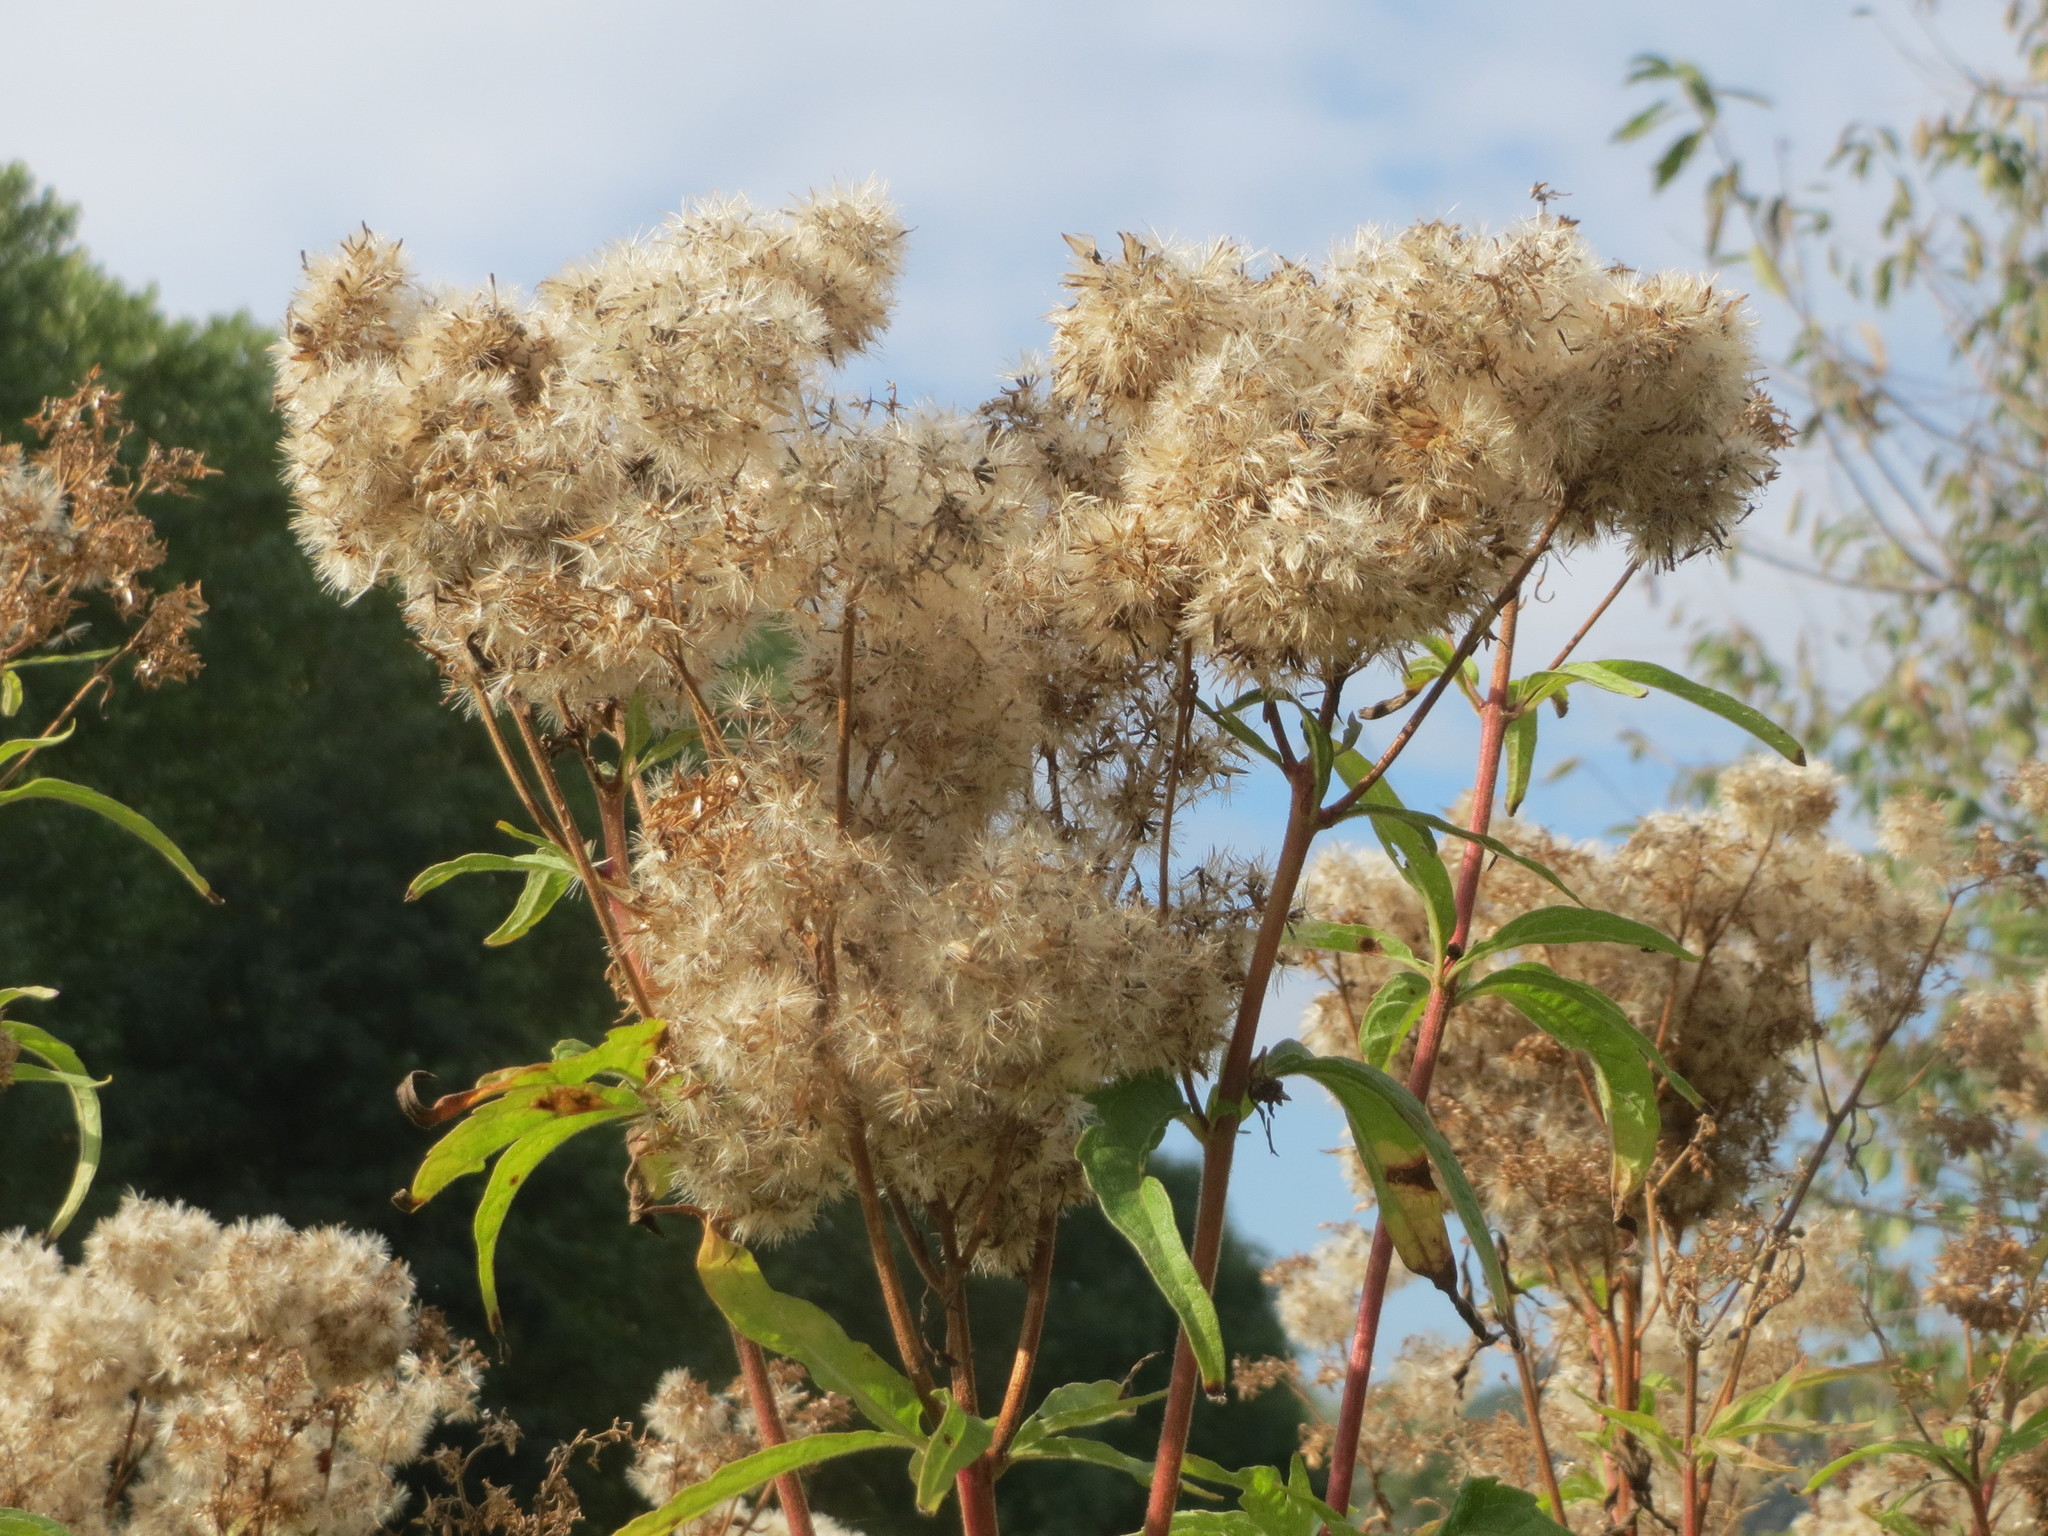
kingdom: Plantae
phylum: Tracheophyta
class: Magnoliopsida
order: Asterales
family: Asteraceae
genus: Eupatorium
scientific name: Eupatorium cannabinum
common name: Hemp-agrimony
